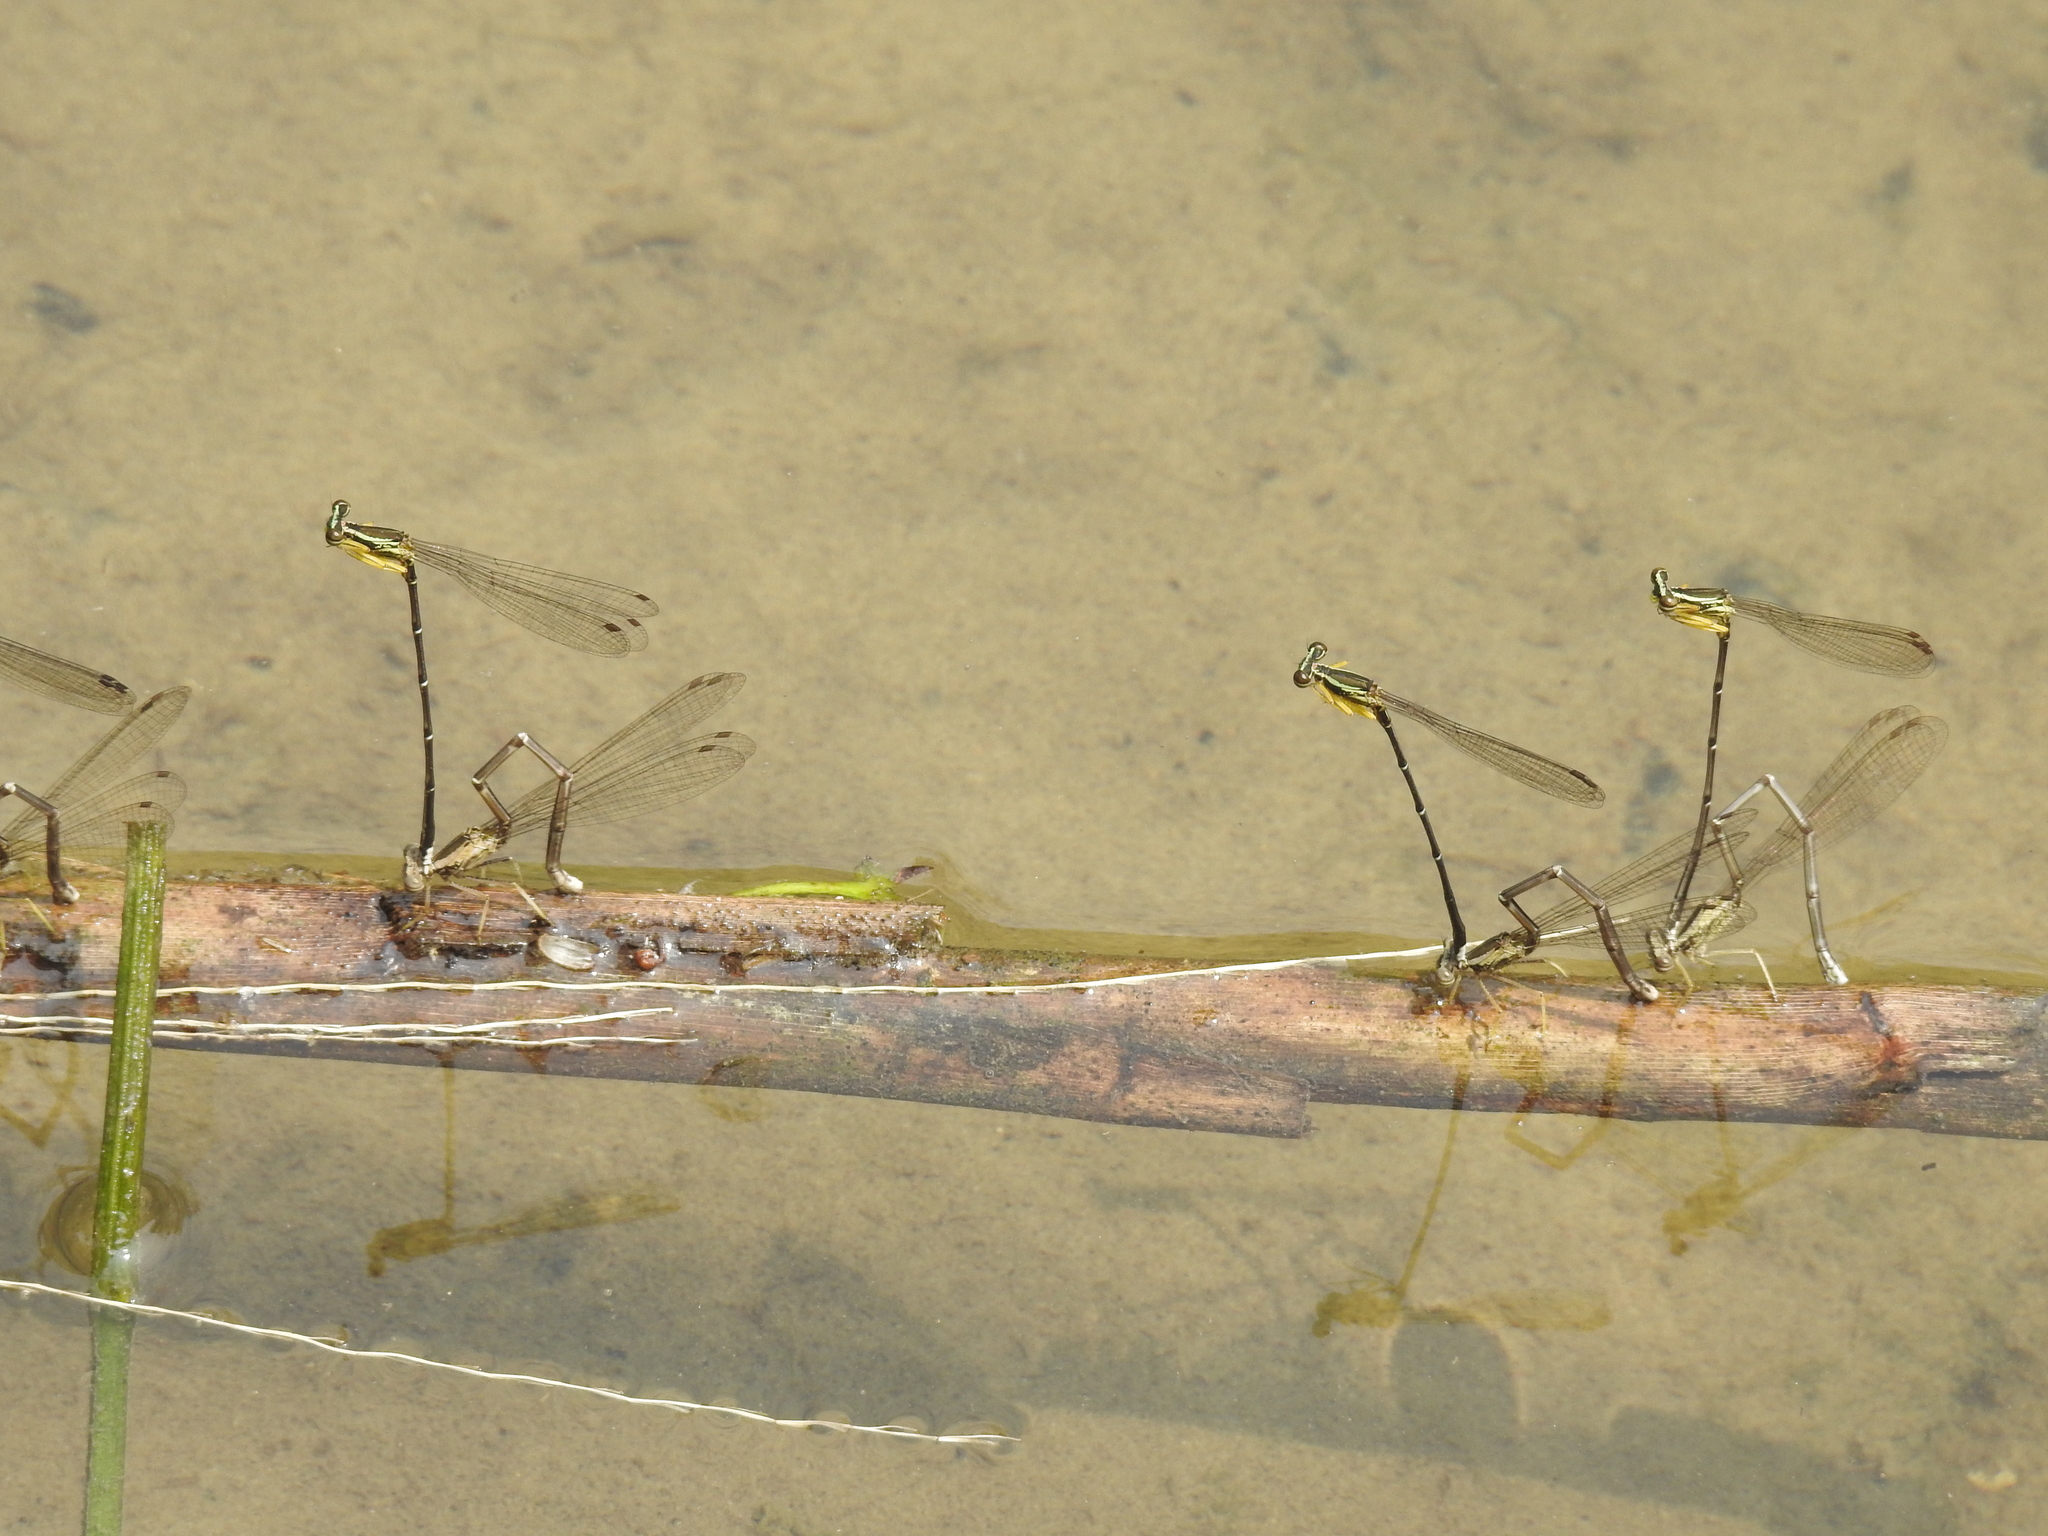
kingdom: Animalia
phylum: Arthropoda
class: Insecta
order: Odonata
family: Platycnemididae
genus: Copera
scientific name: Copera marginipes
